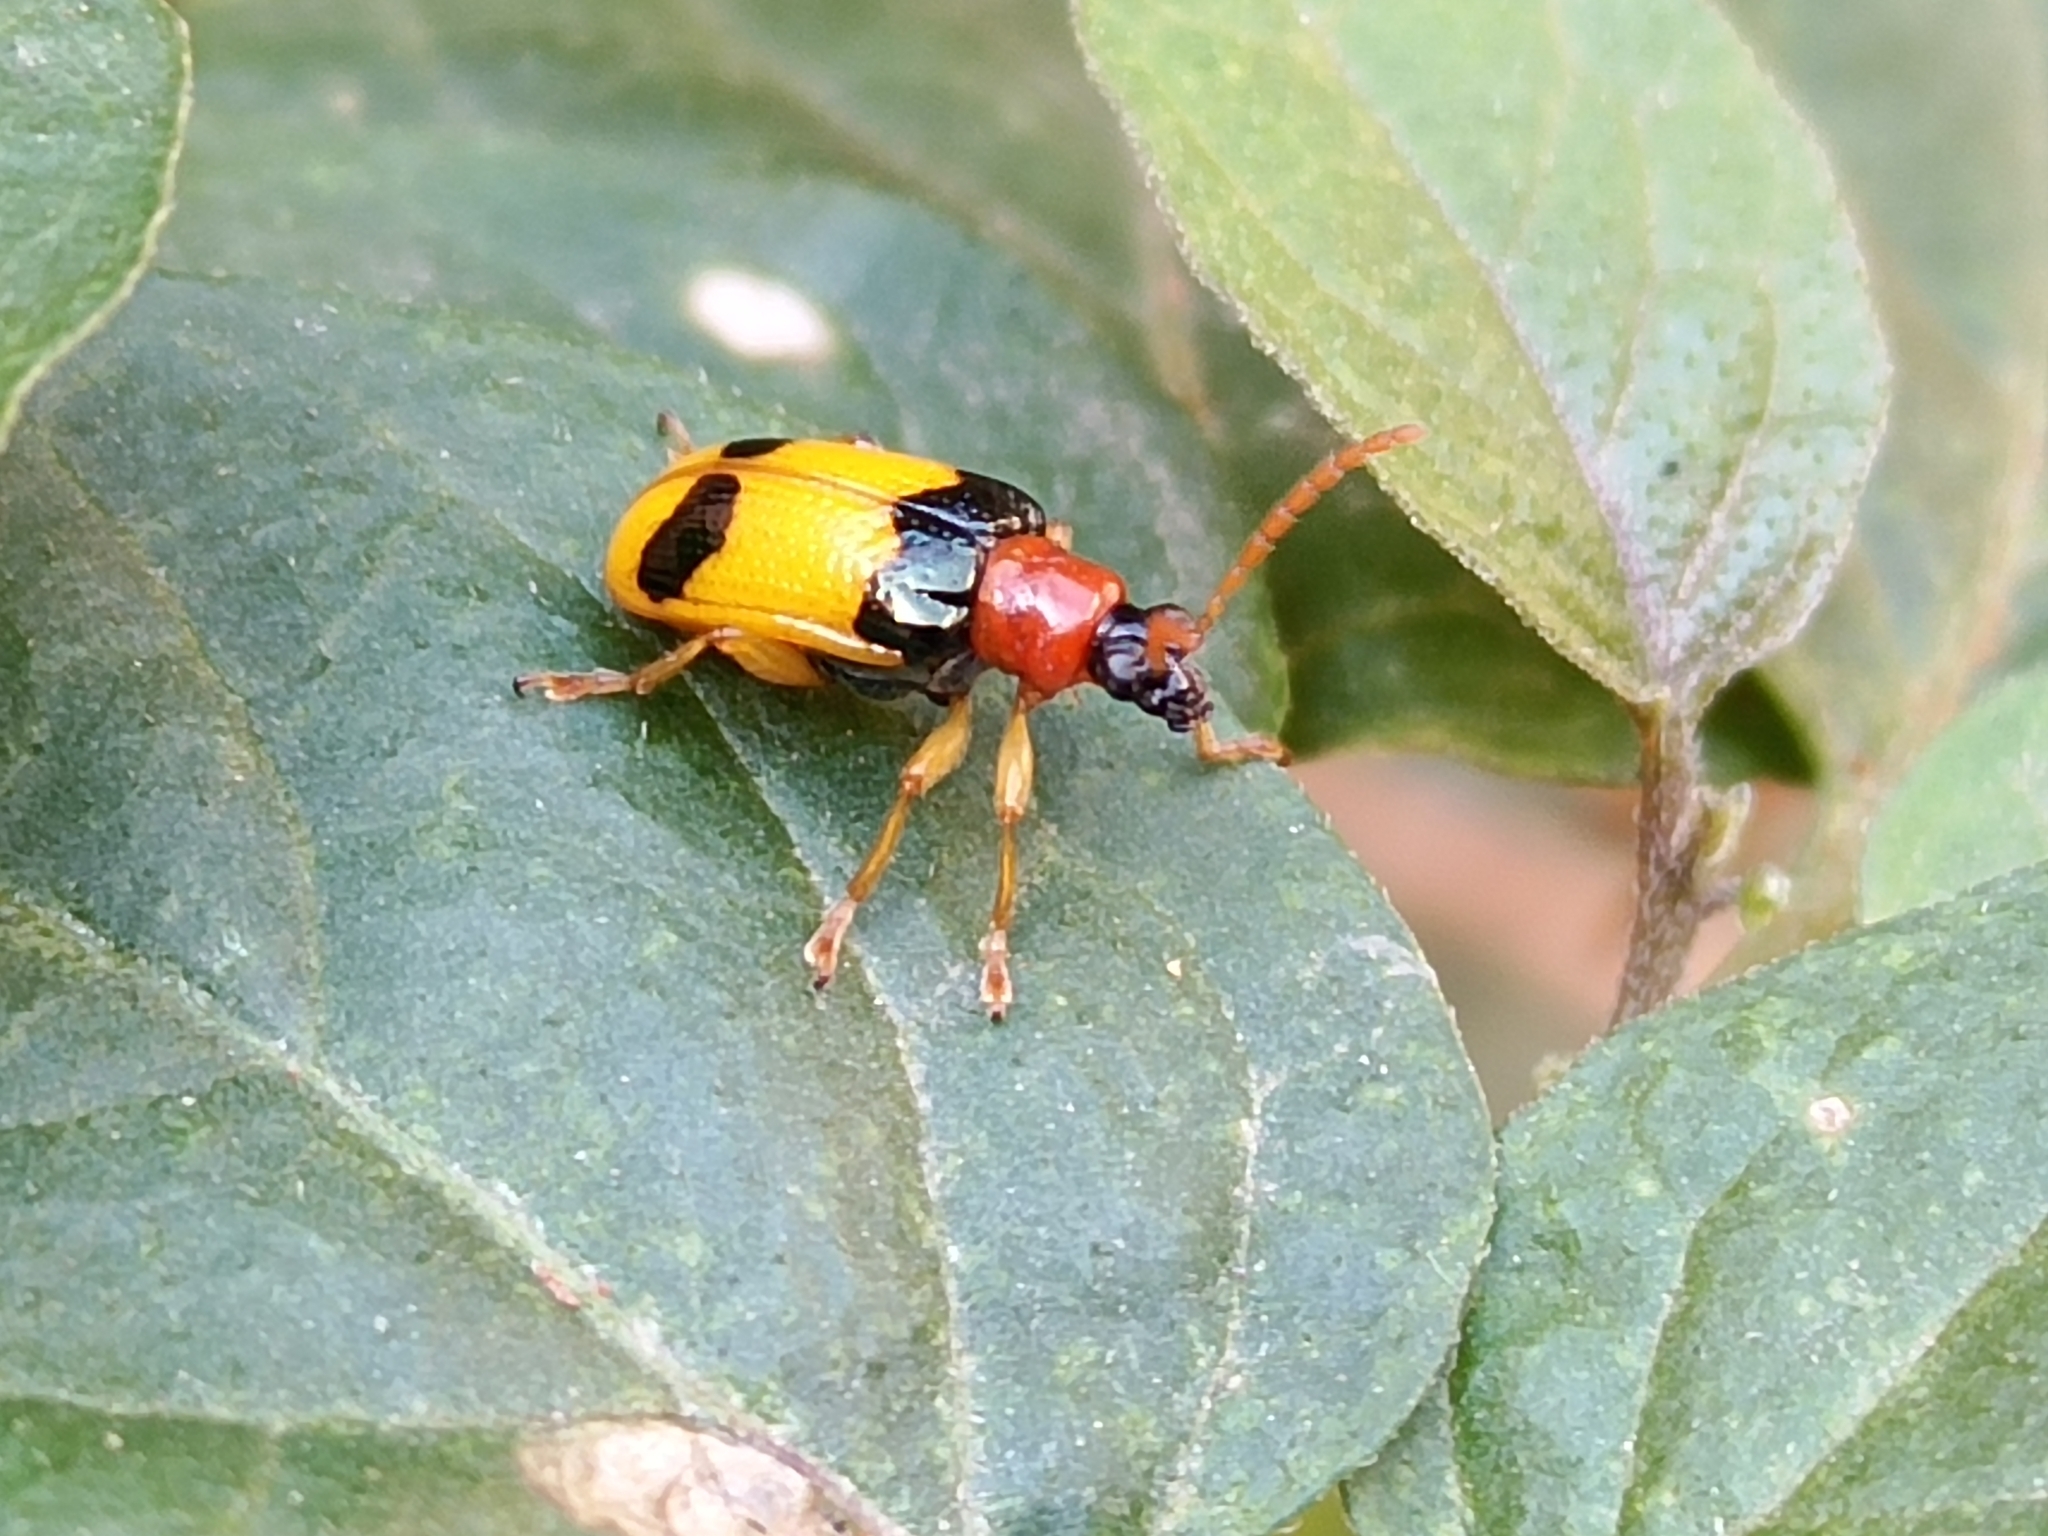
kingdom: Animalia
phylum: Arthropoda
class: Insecta
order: Coleoptera
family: Chrysomelidae
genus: Lema
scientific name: Lema
